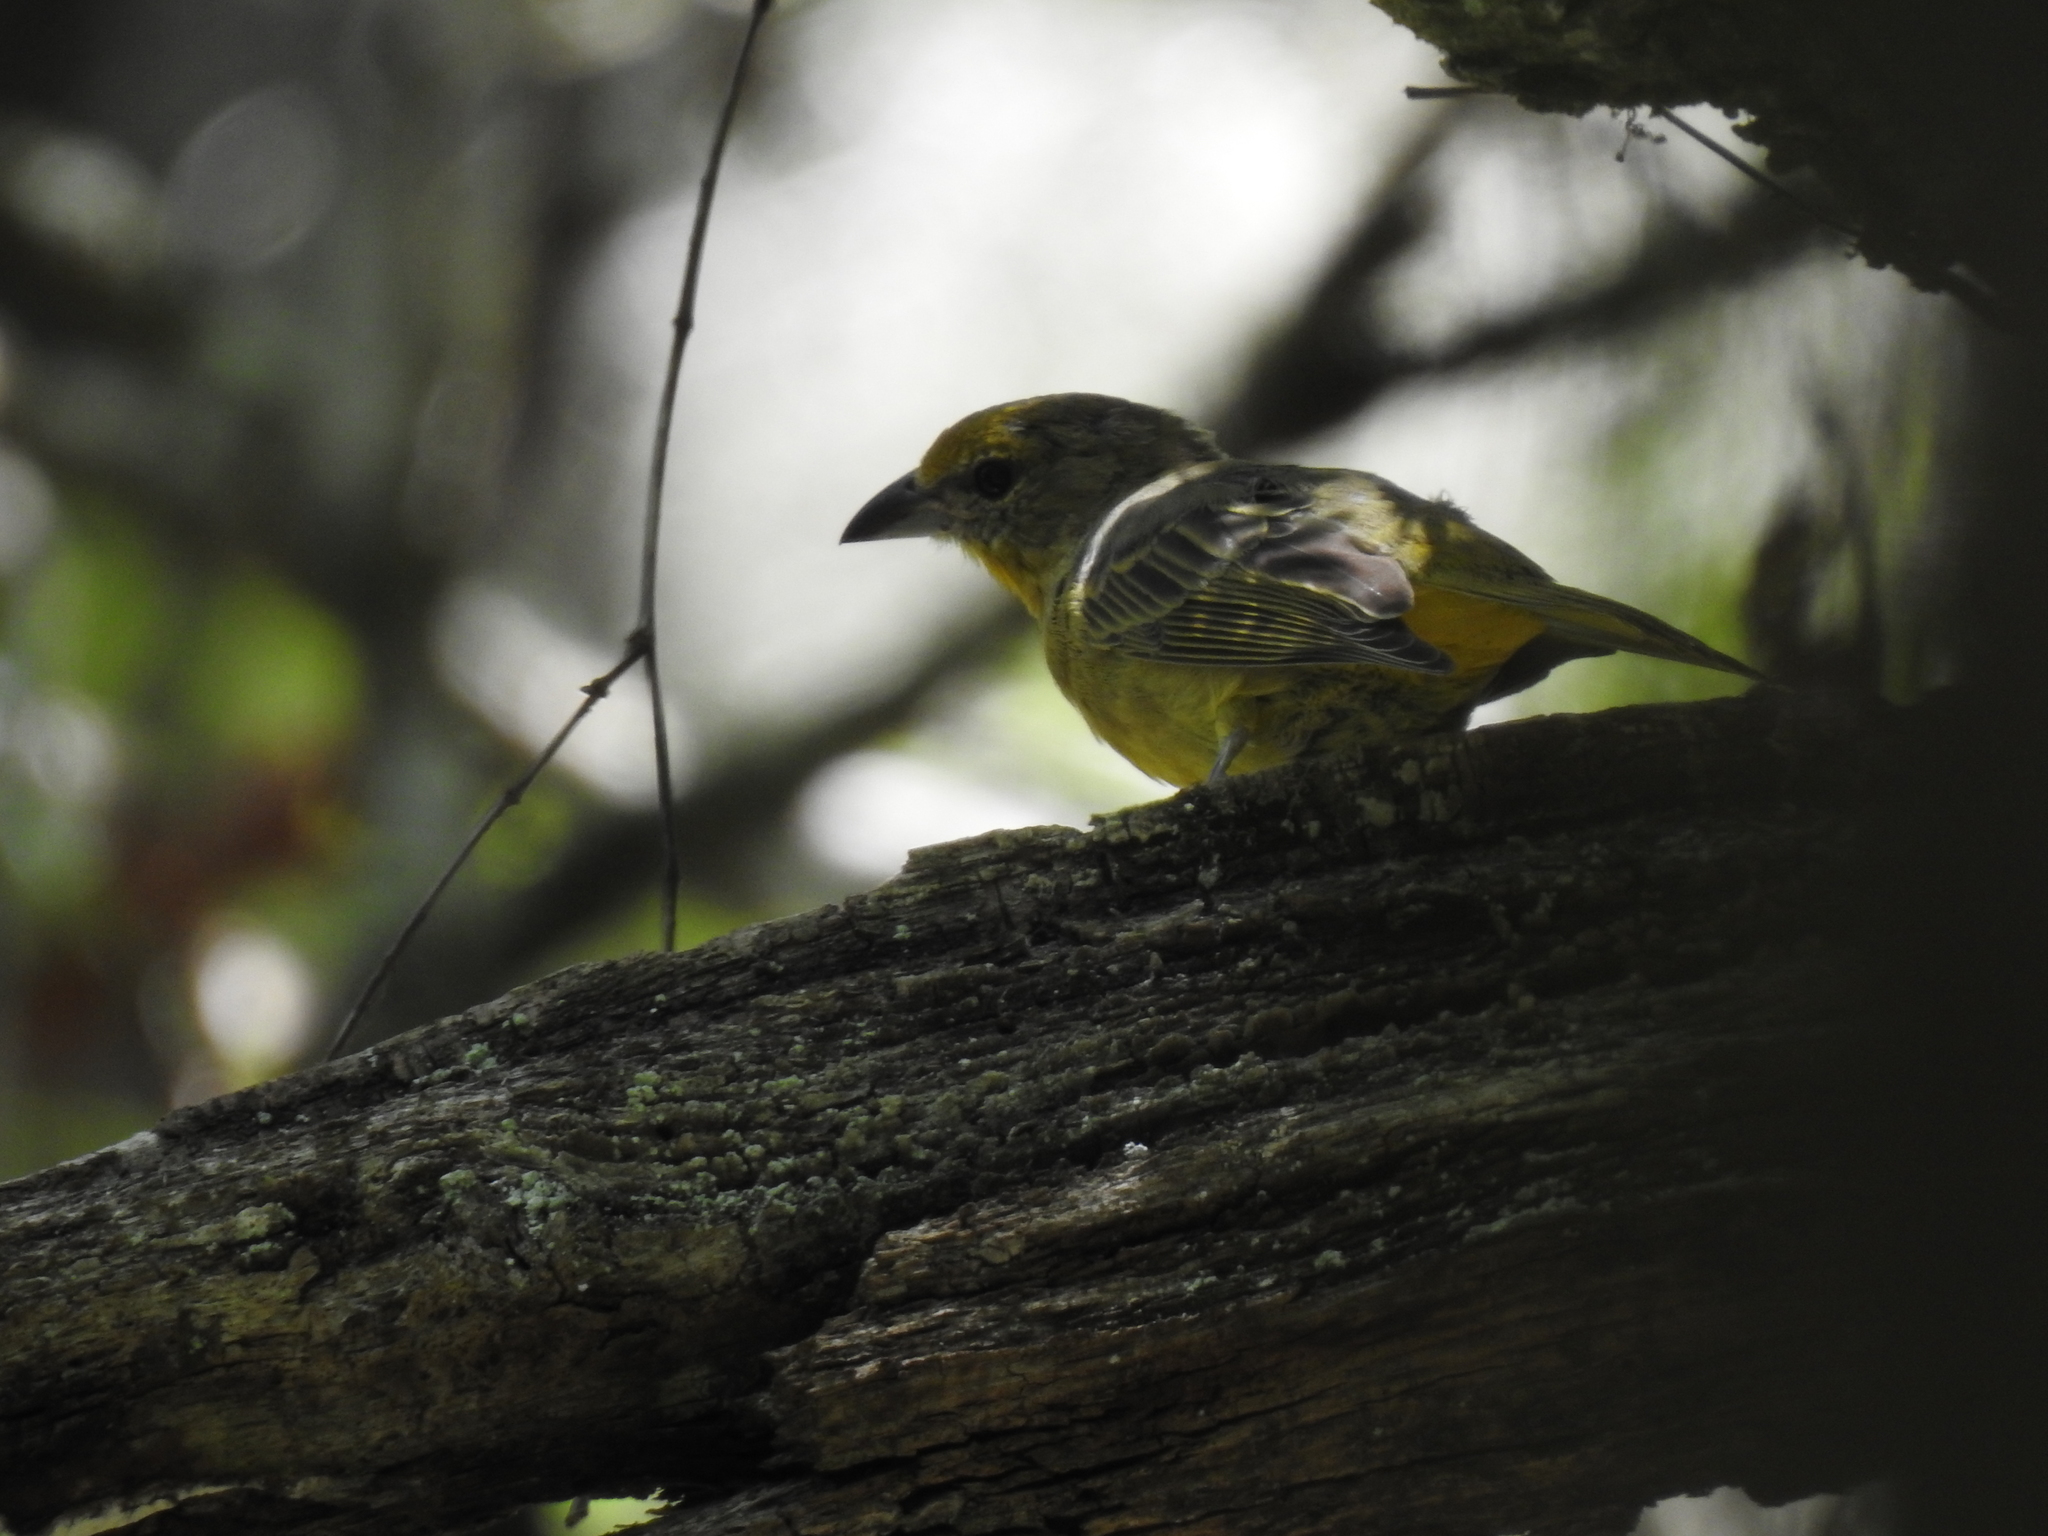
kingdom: Animalia
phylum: Chordata
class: Aves
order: Passeriformes
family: Cardinalidae
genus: Piranga
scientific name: Piranga flava
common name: Red tanager
